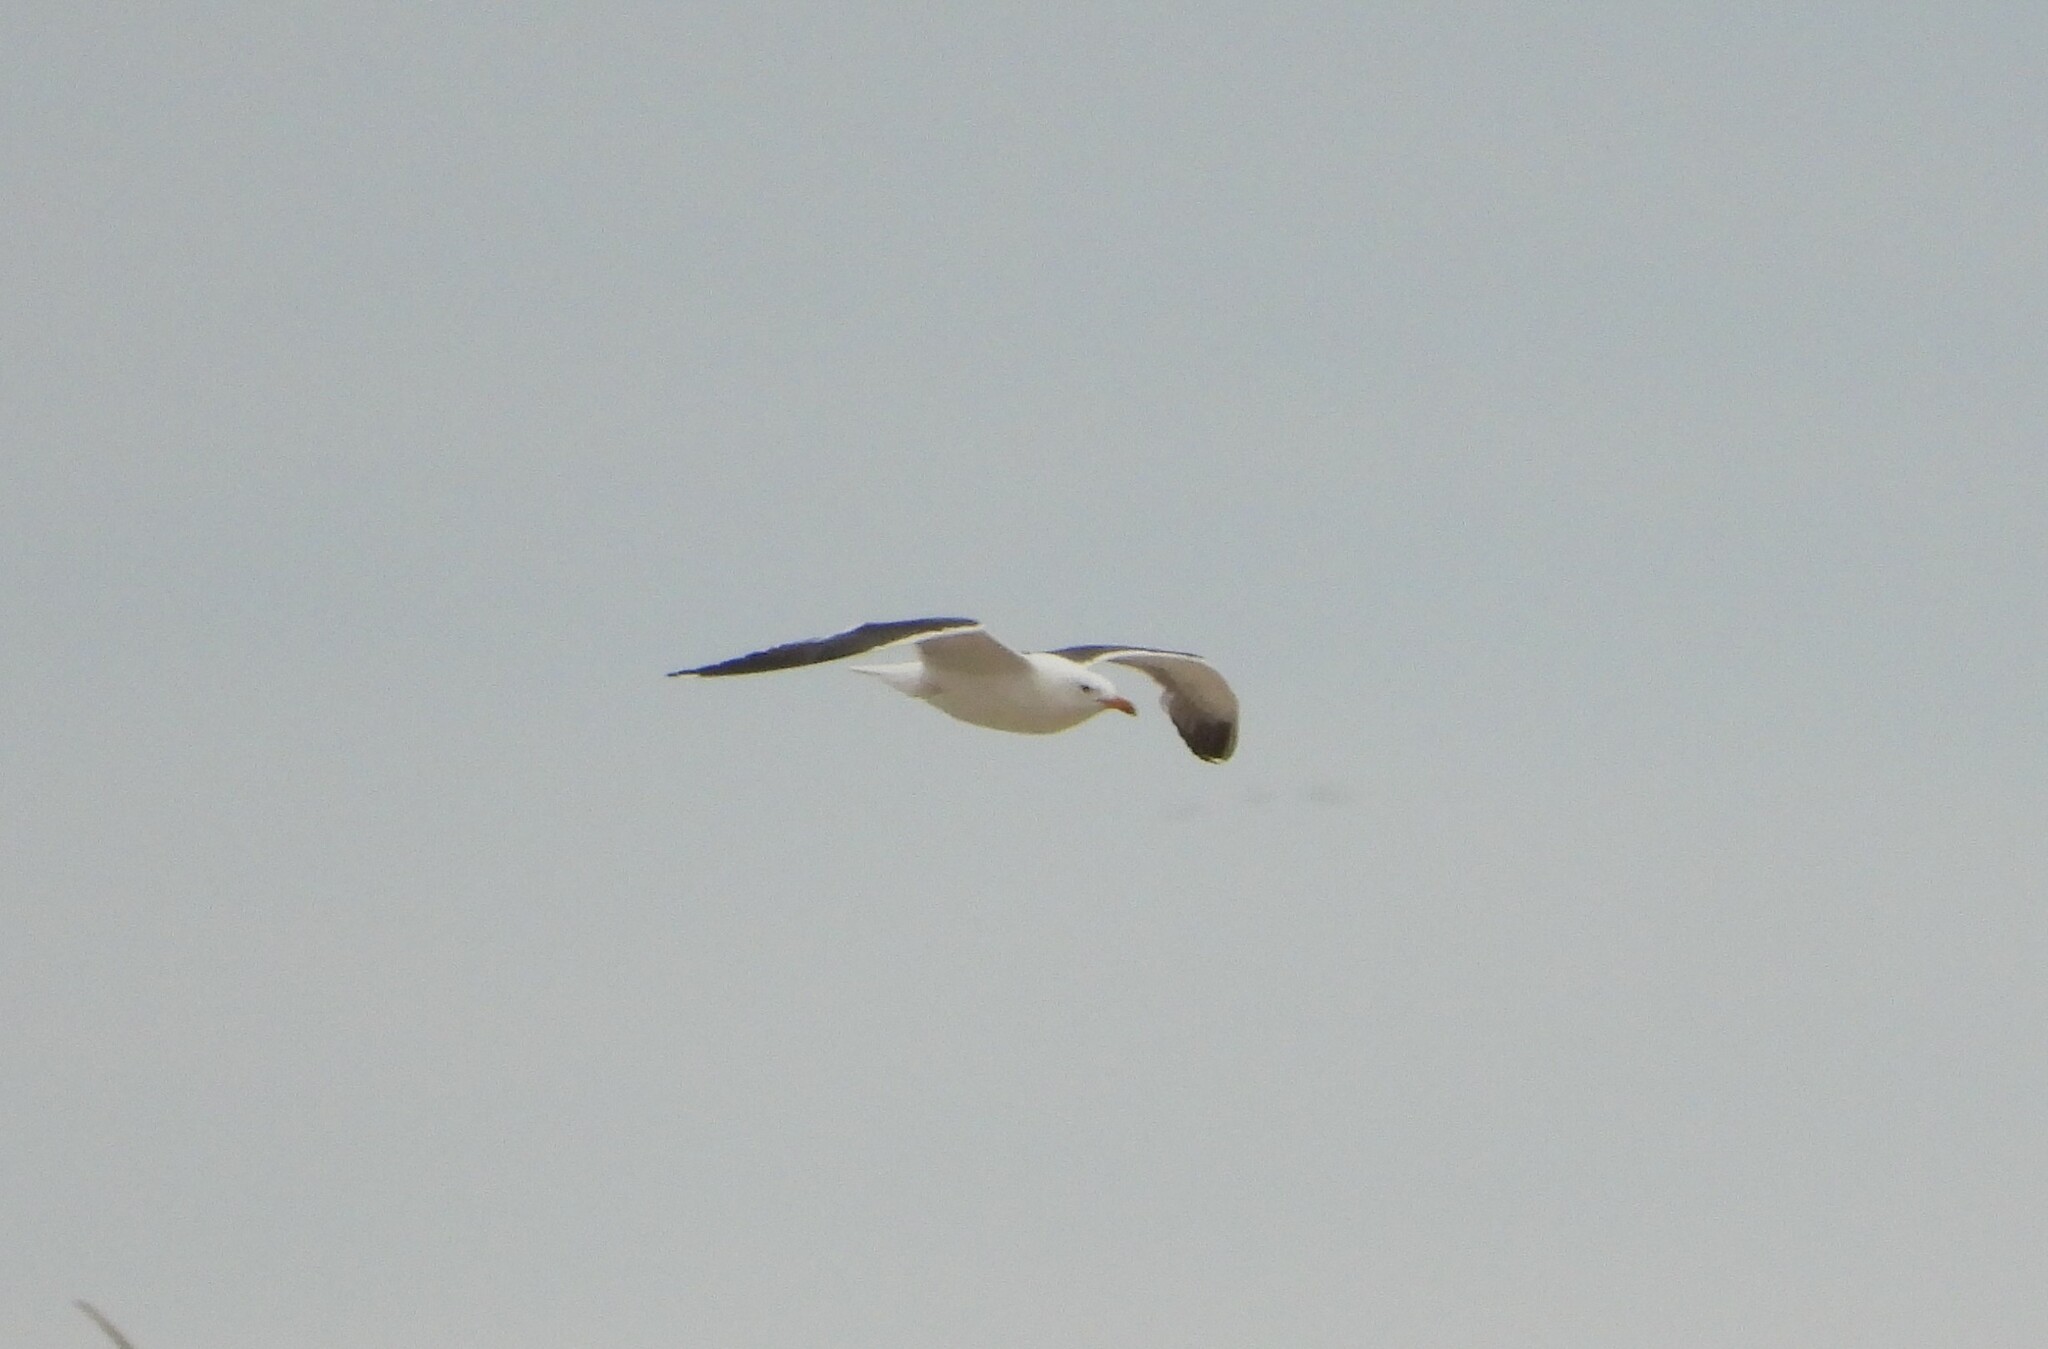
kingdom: Animalia
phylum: Chordata
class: Aves
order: Charadriiformes
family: Laridae
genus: Larus
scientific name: Larus fuscus
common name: Lesser black-backed gull
